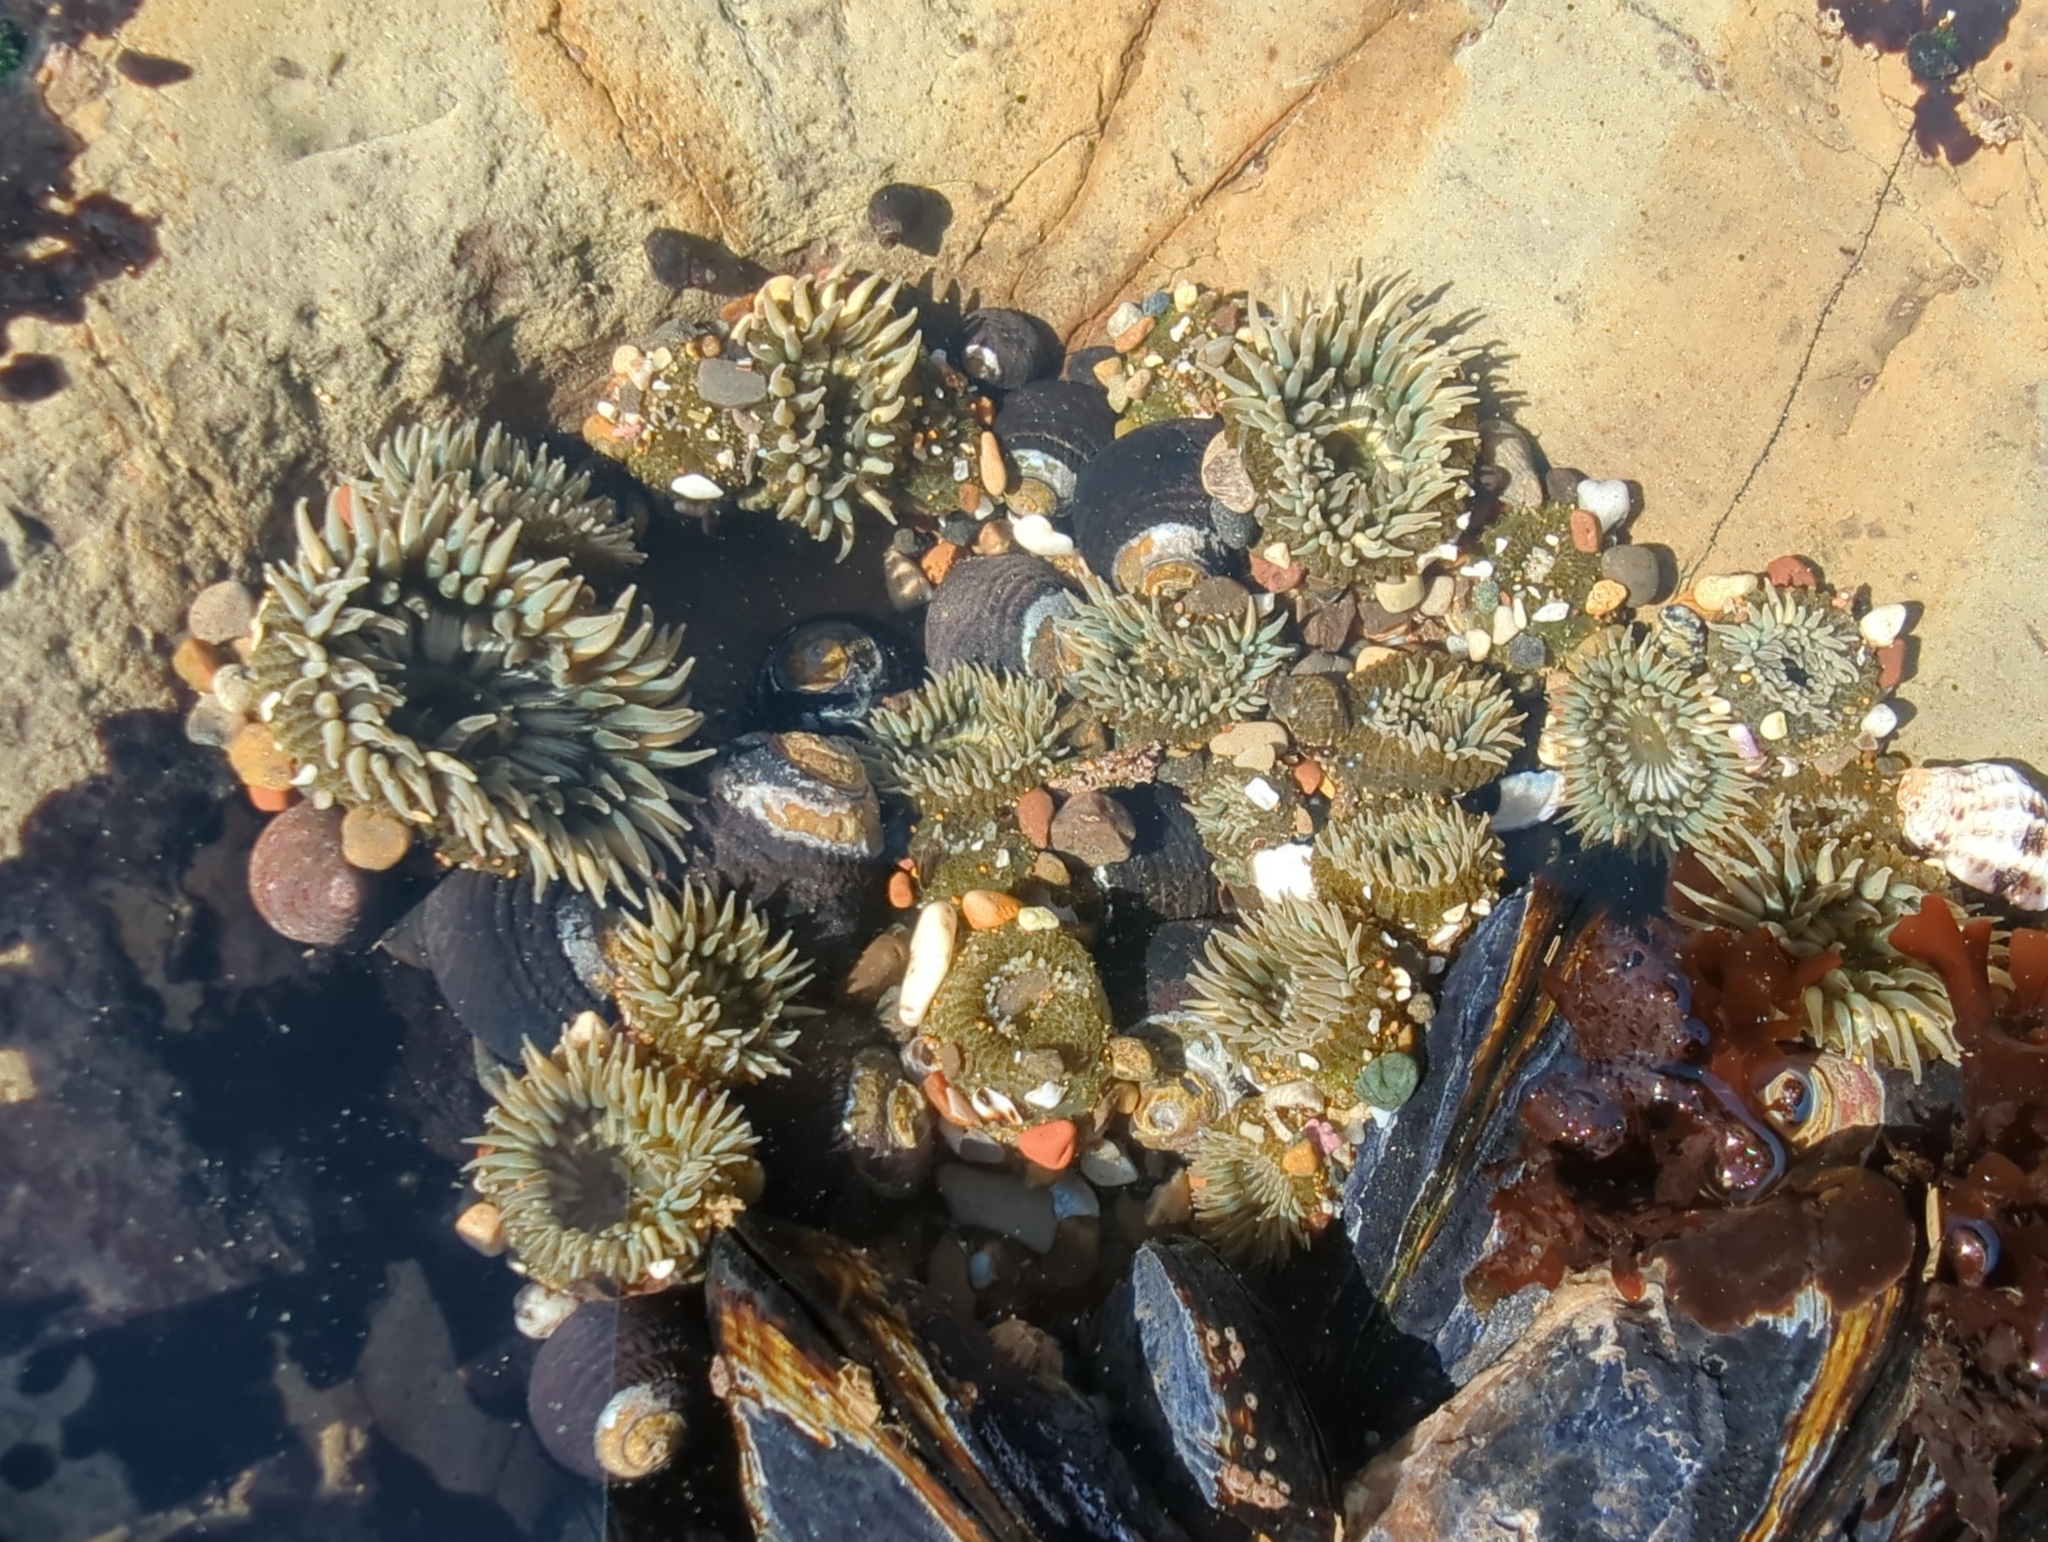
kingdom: Animalia
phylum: Cnidaria
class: Anthozoa
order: Actiniaria
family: Actiniidae
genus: Anthopleura
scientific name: Anthopleura elegantissima
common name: Clonal anemone
